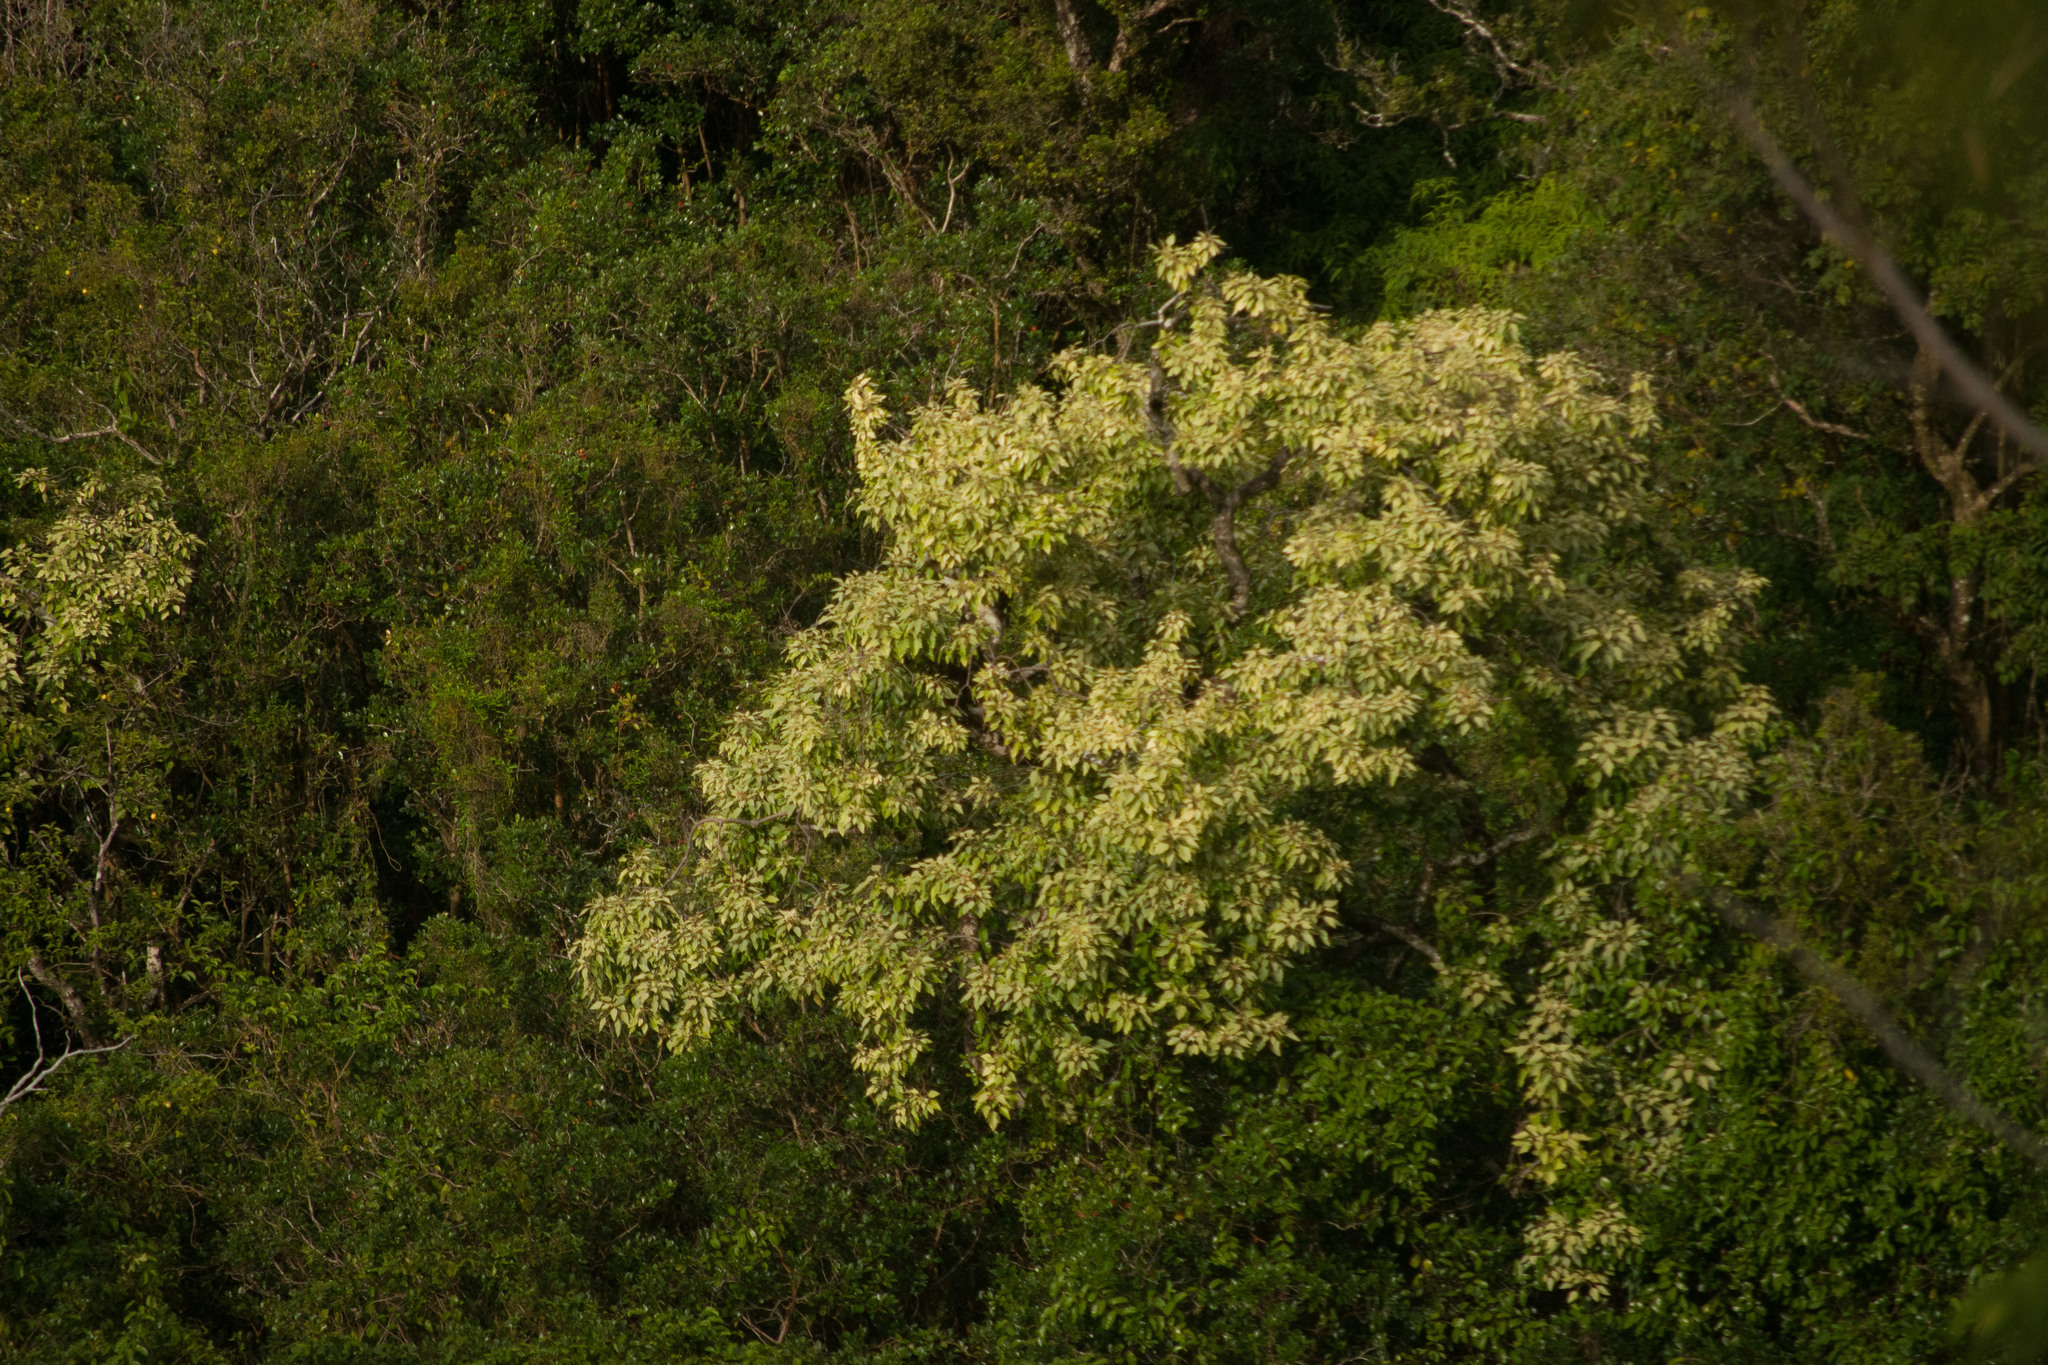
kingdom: Plantae
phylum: Tracheophyta
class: Magnoliopsida
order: Malpighiales
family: Euphorbiaceae
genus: Aleurites
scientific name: Aleurites moluccanus
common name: Candlenut tree
